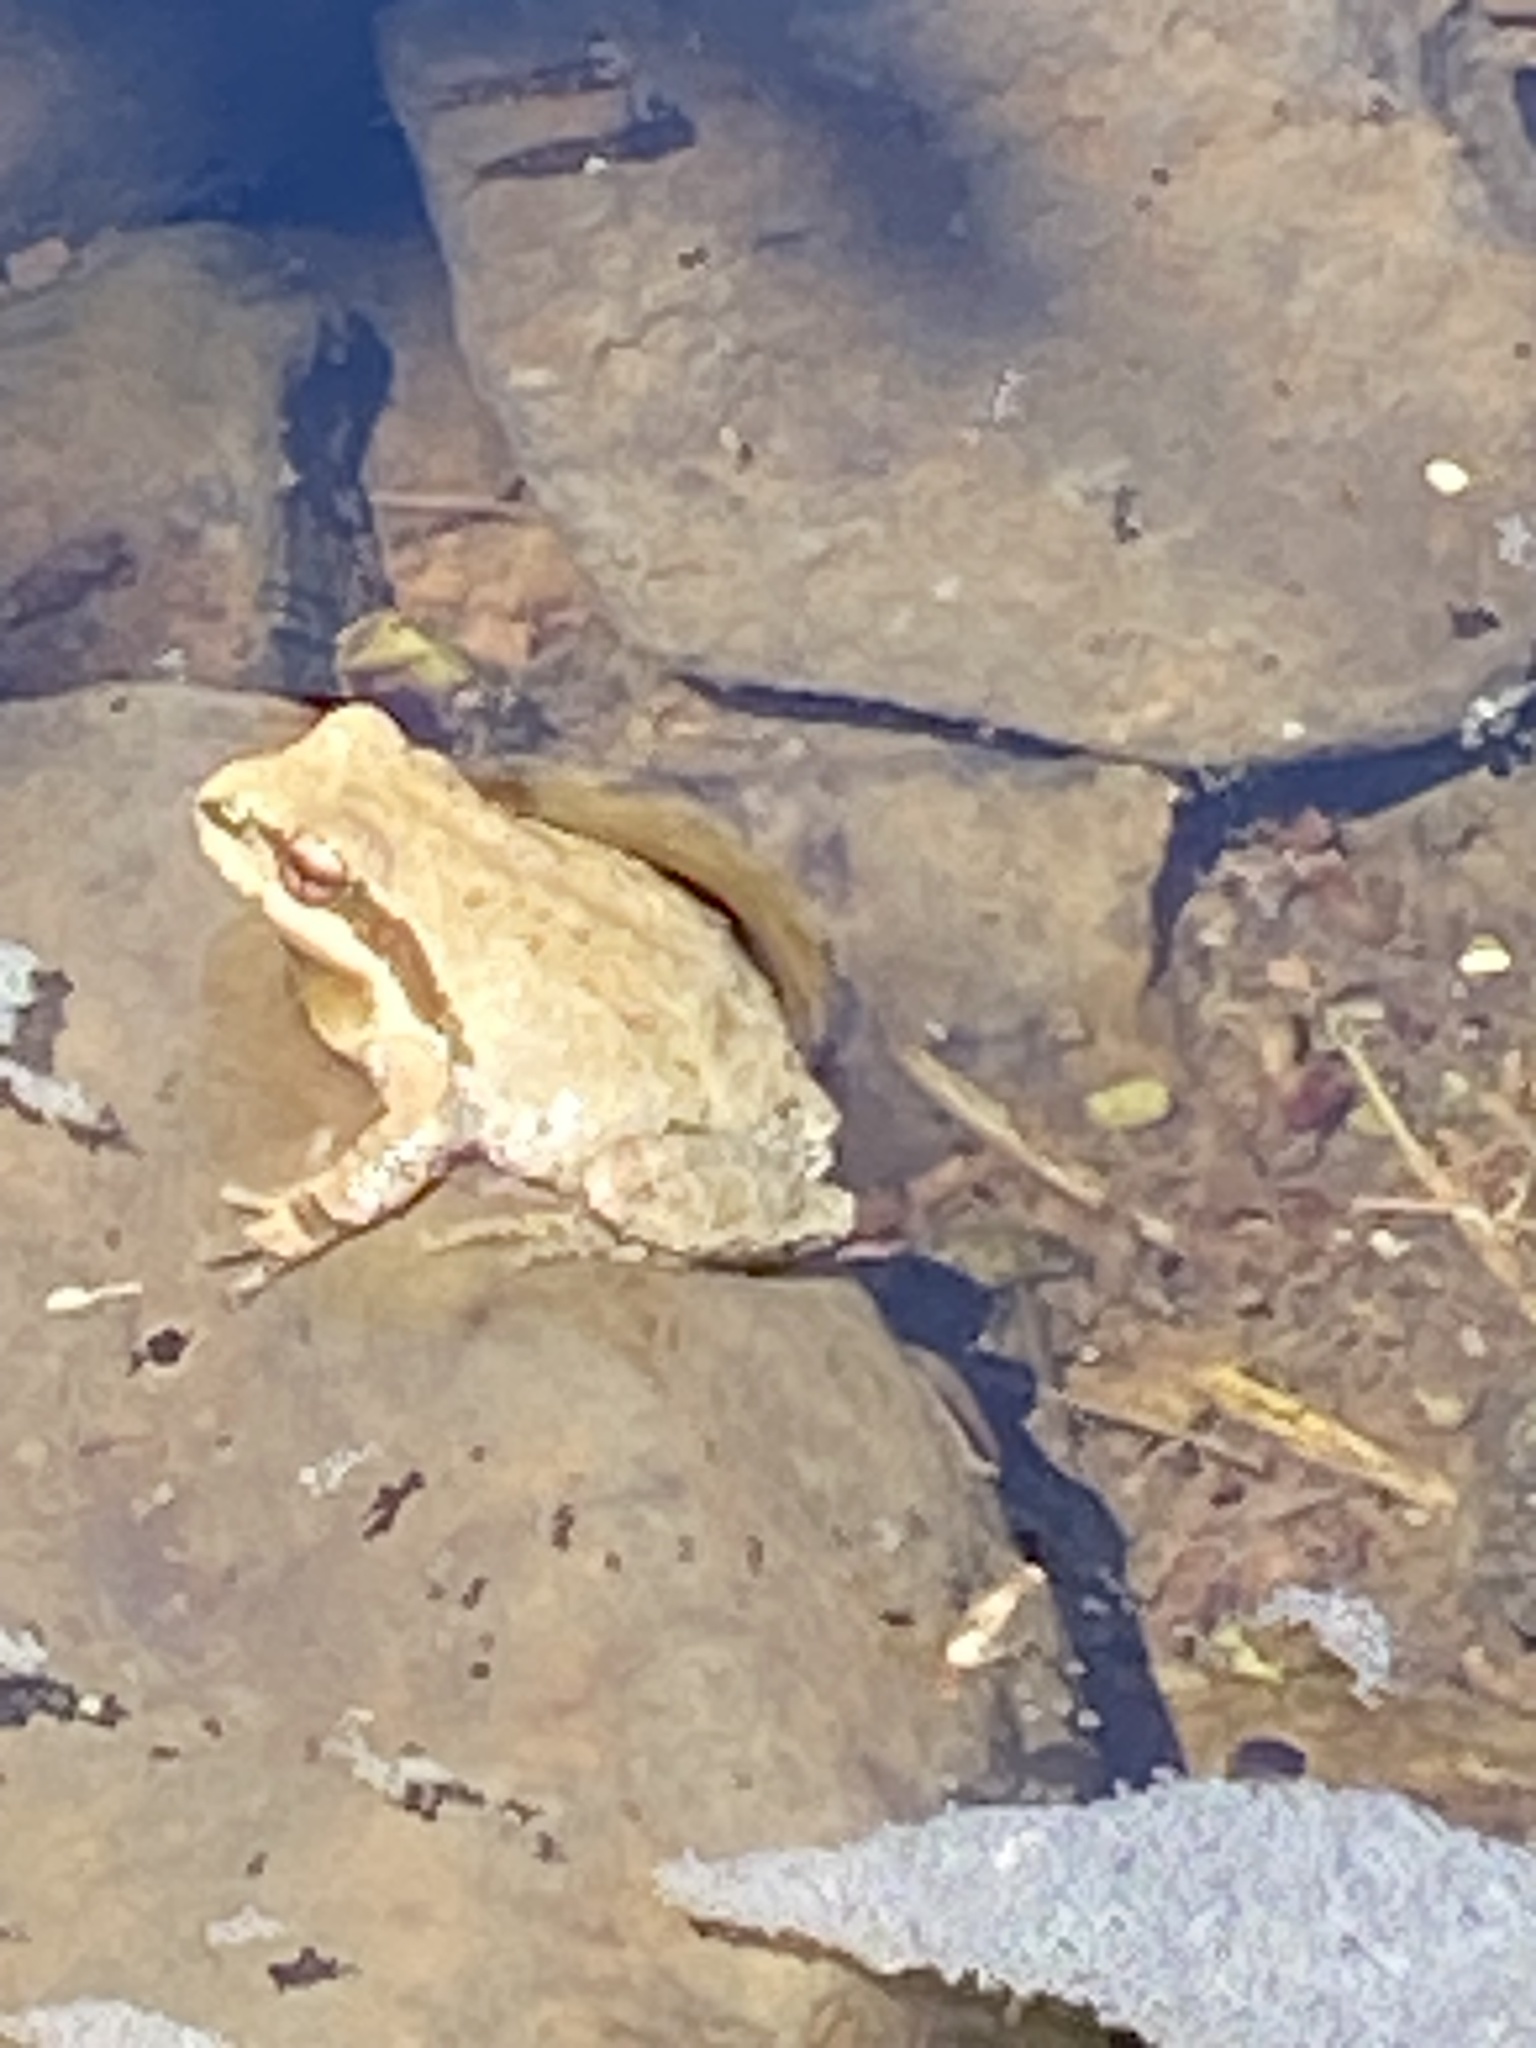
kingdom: Animalia
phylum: Chordata
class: Amphibia
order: Anura
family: Hylidae
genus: Pseudacris
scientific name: Pseudacris regilla
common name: Pacific chorus frog
